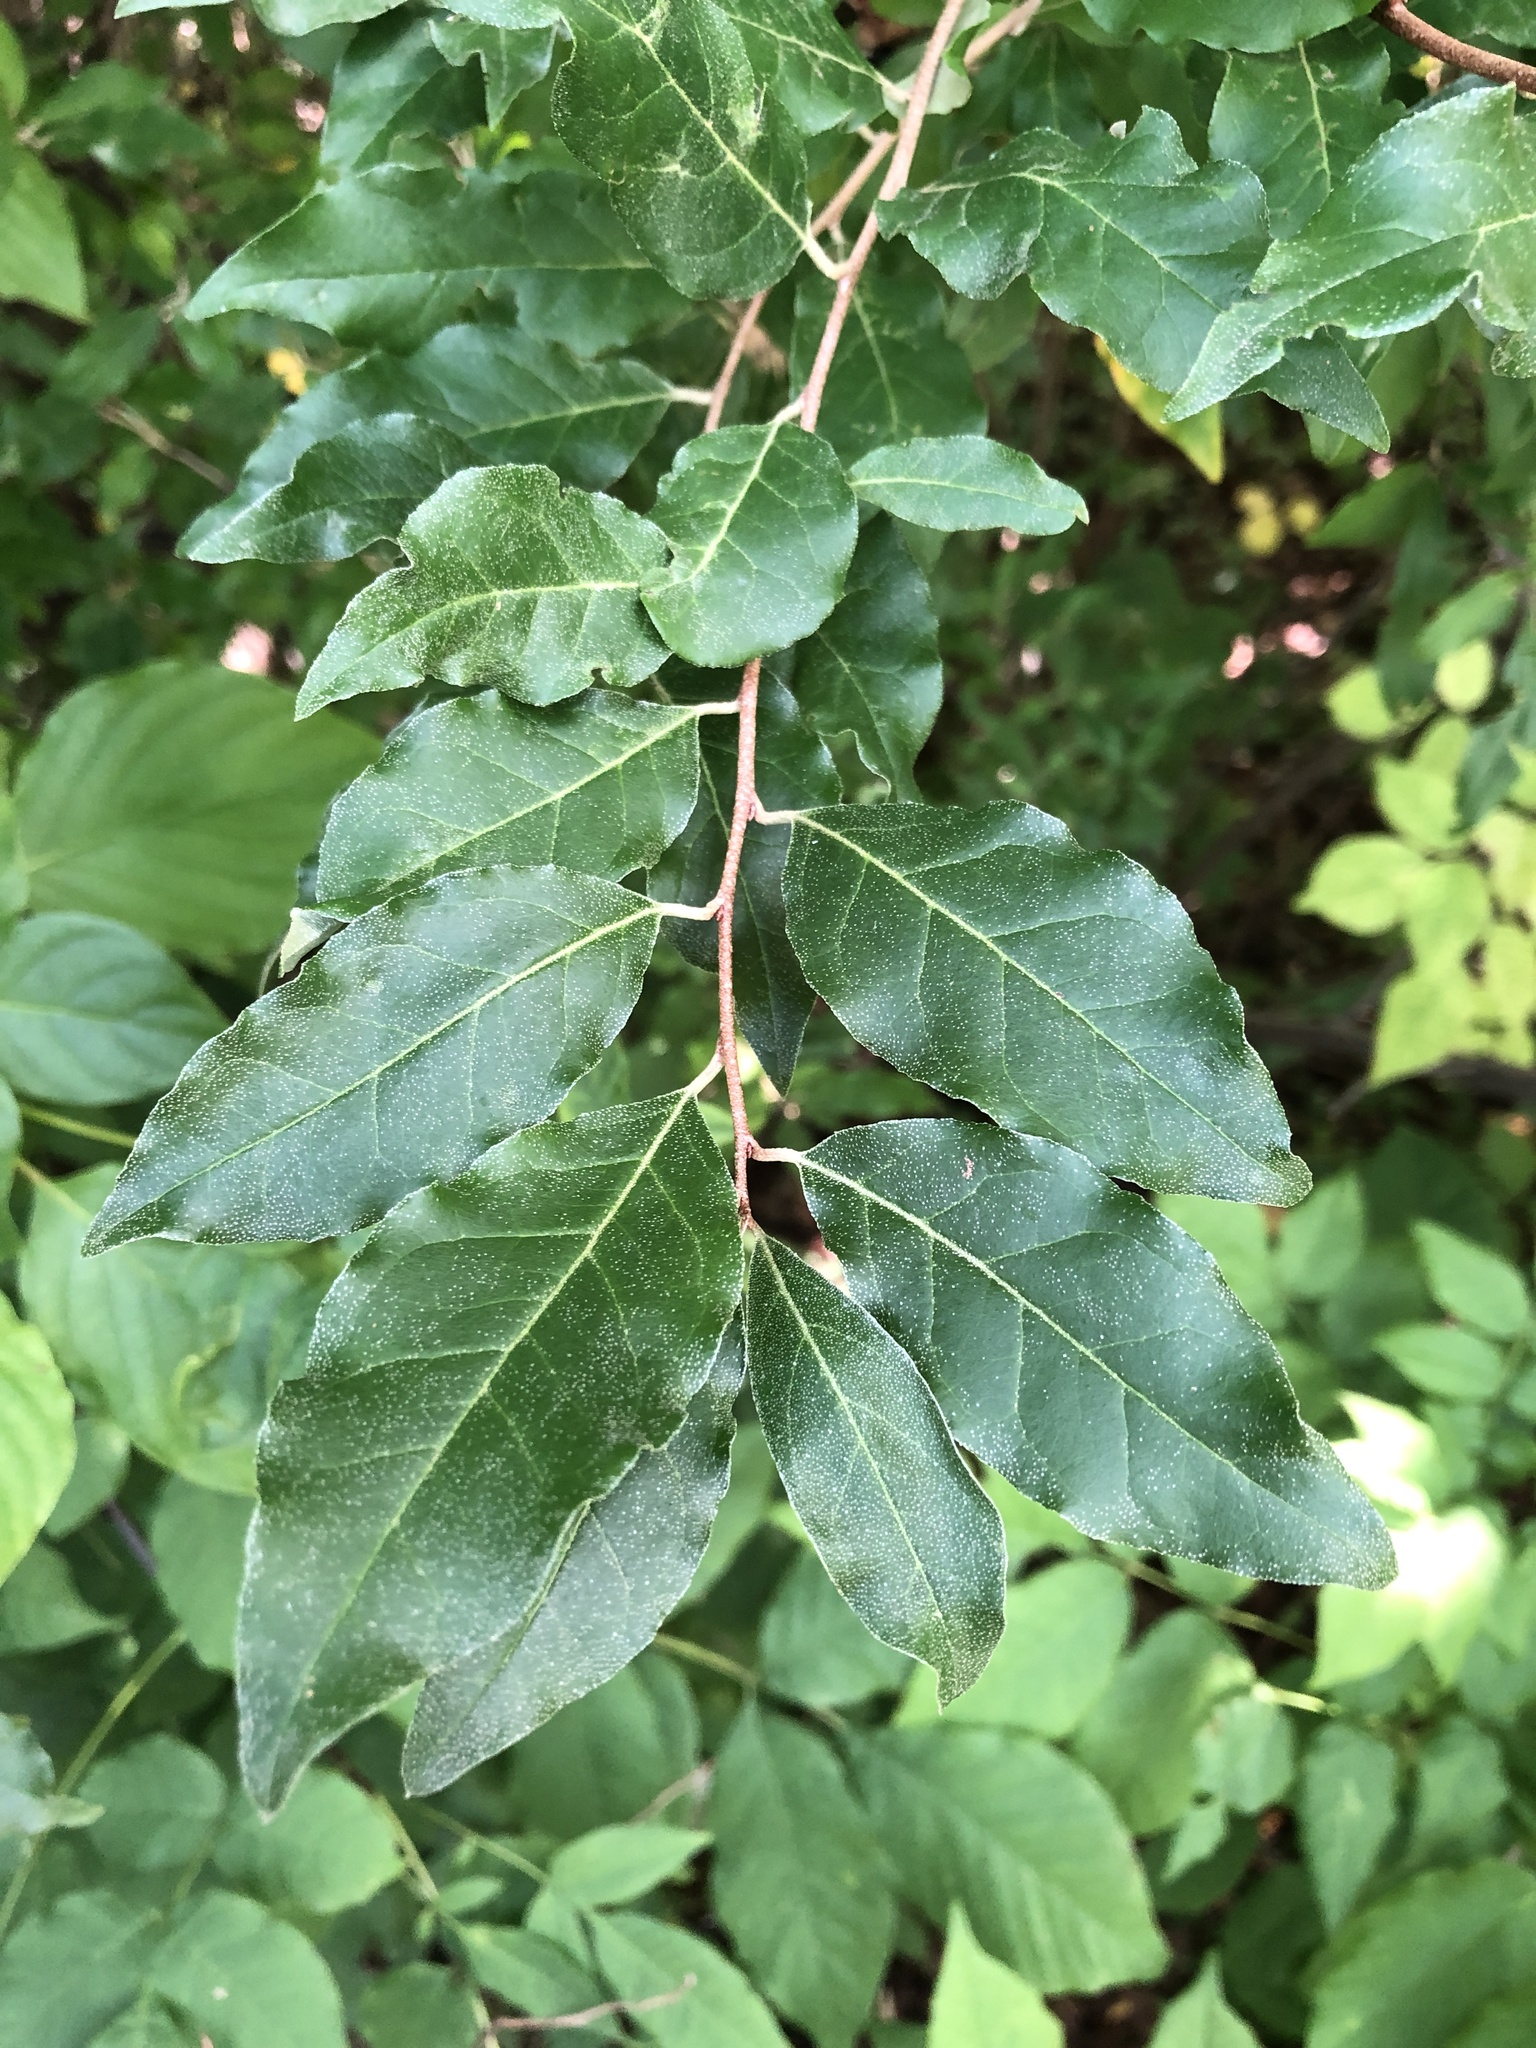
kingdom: Plantae
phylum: Tracheophyta
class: Magnoliopsida
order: Rosales
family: Elaeagnaceae
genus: Elaeagnus
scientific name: Elaeagnus umbellata
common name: Autumn olive
